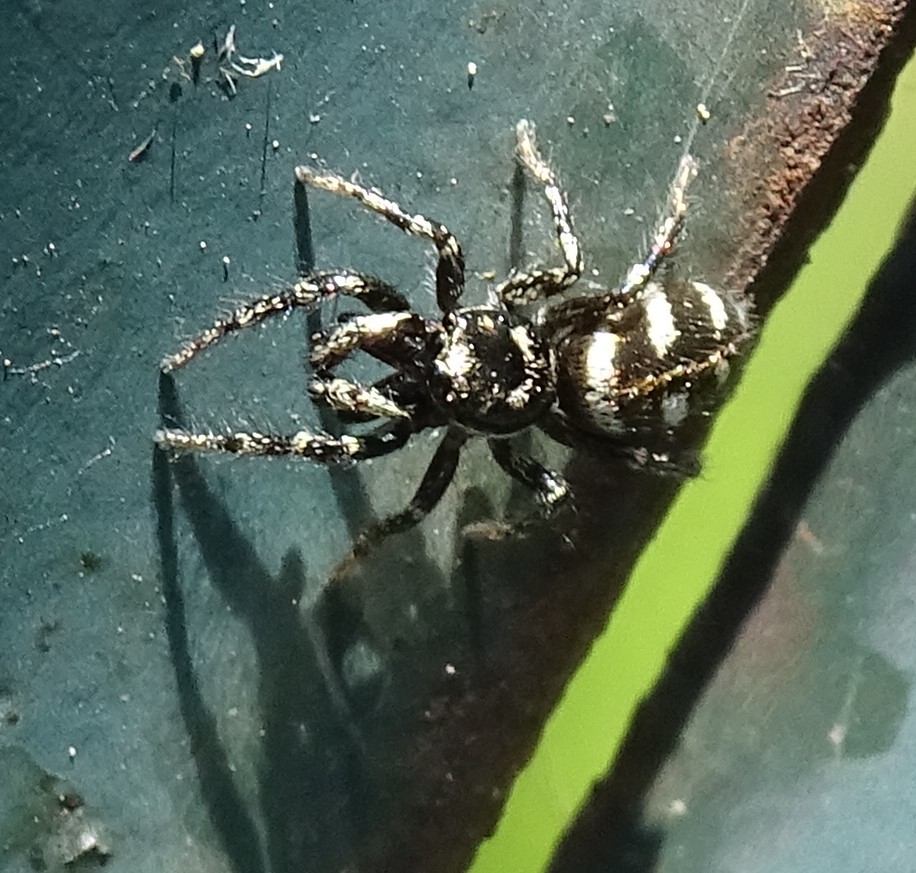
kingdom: Animalia
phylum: Arthropoda
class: Arachnida
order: Araneae
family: Salticidae
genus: Salticus
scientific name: Salticus scenicus
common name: Zebra jumper
